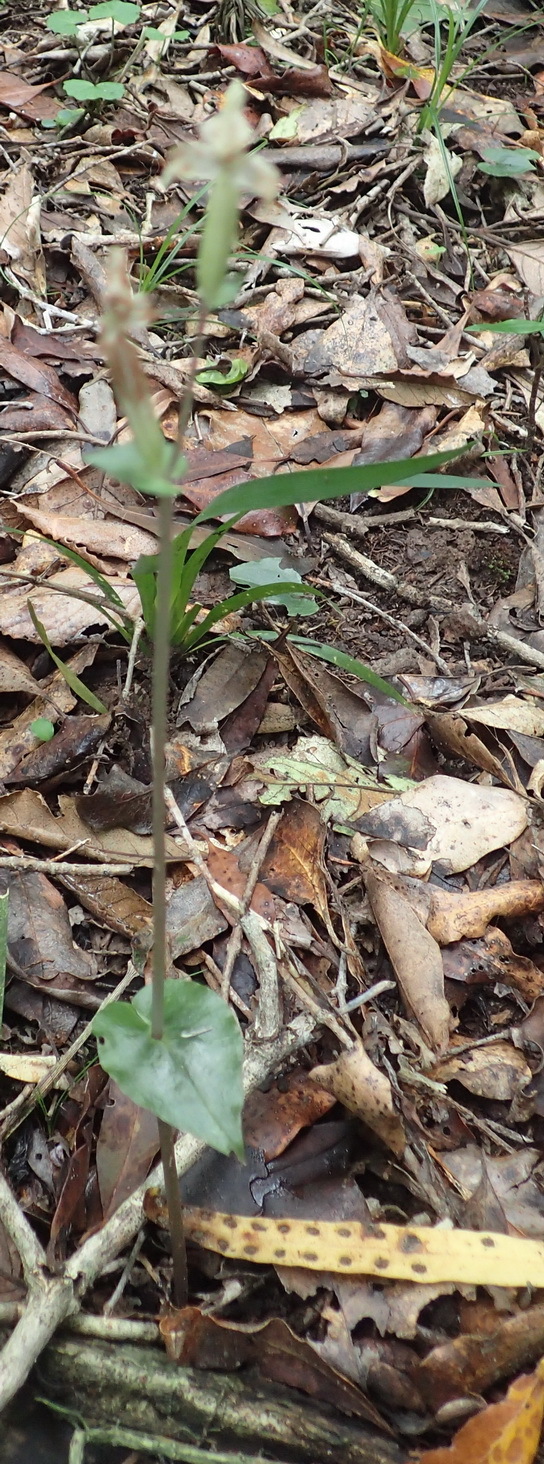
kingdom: Plantae
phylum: Tracheophyta
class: Liliopsida
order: Asparagales
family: Orchidaceae
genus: Disperis
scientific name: Disperis lindleyana
